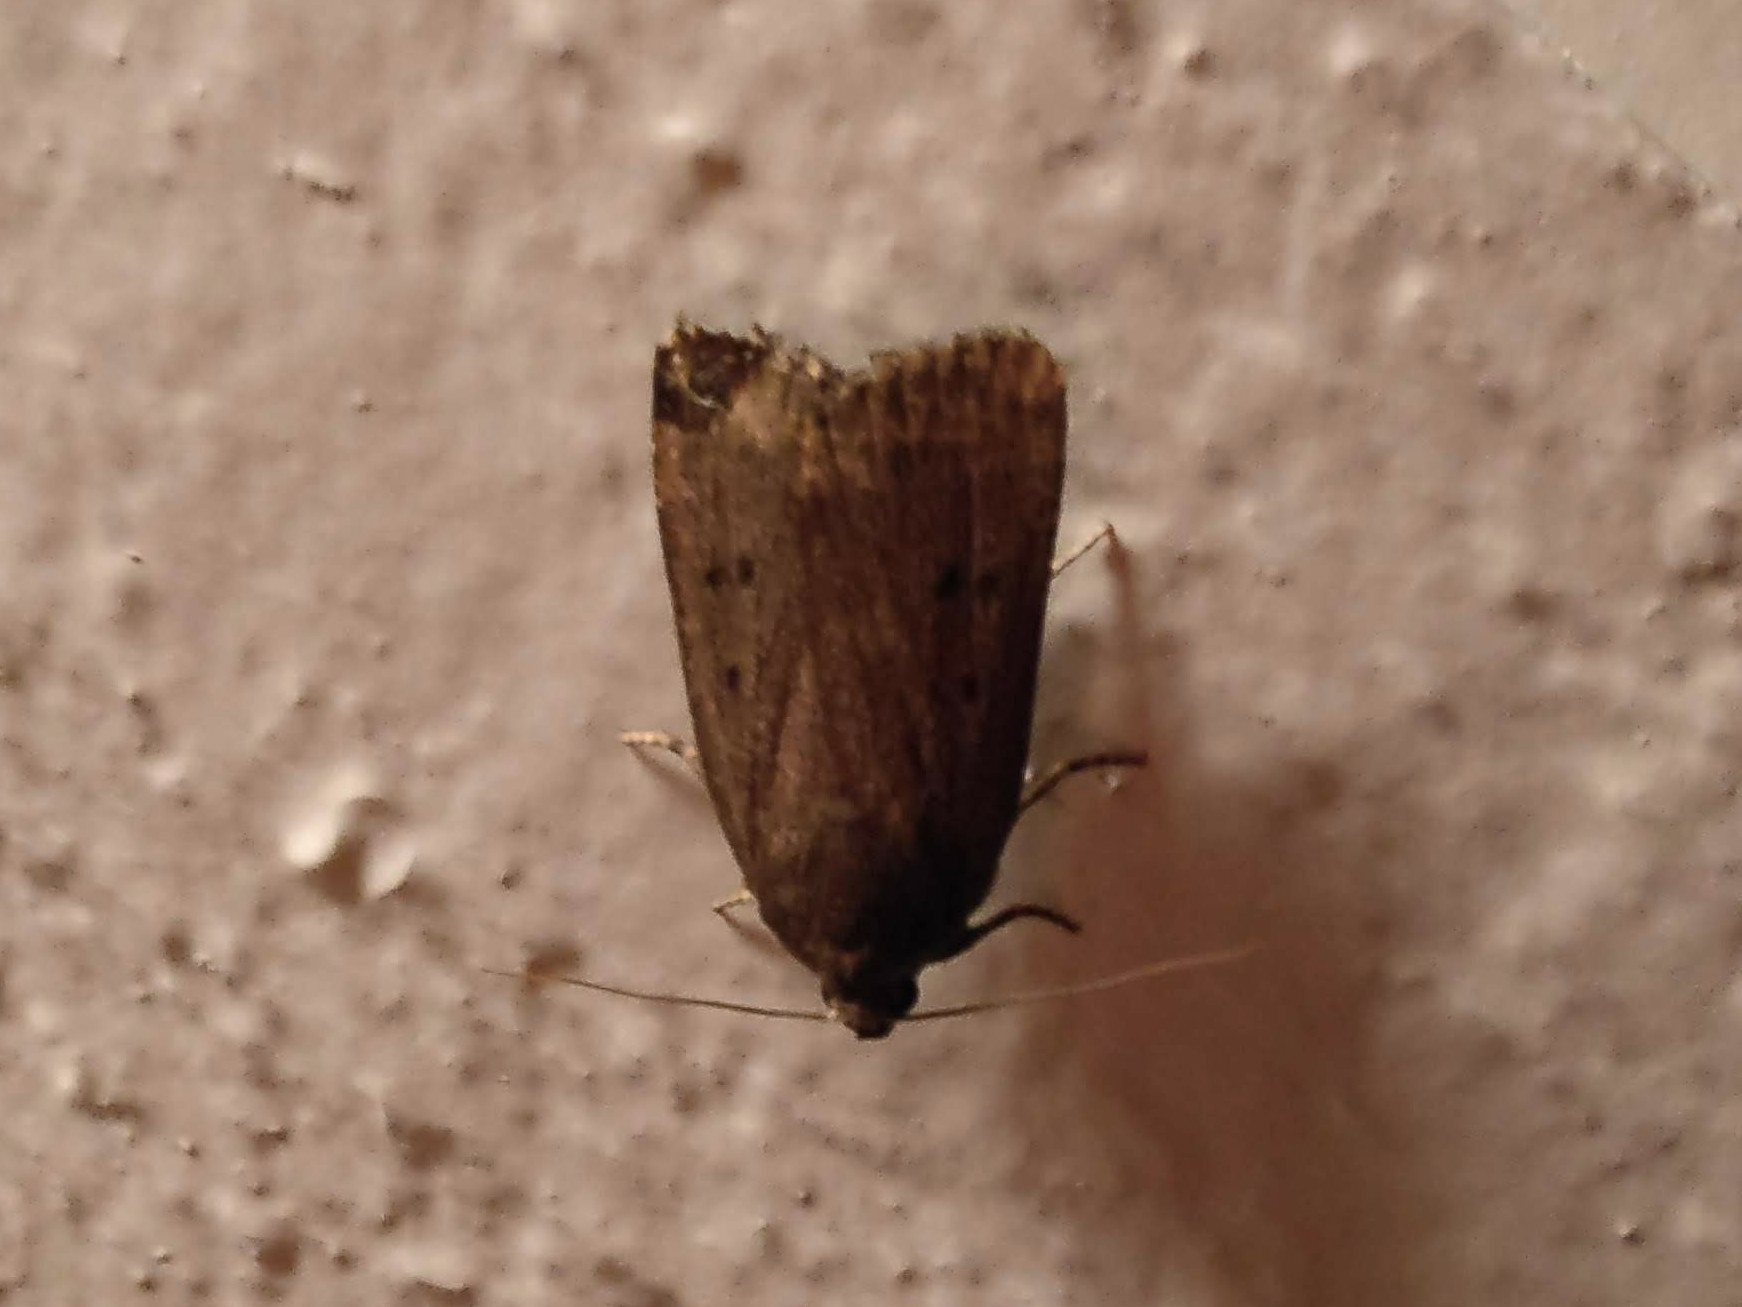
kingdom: Animalia
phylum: Arthropoda
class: Insecta
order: Lepidoptera
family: Noctuidae
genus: Amphipyra
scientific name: Amphipyra tragopoginis
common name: Mouse moth
